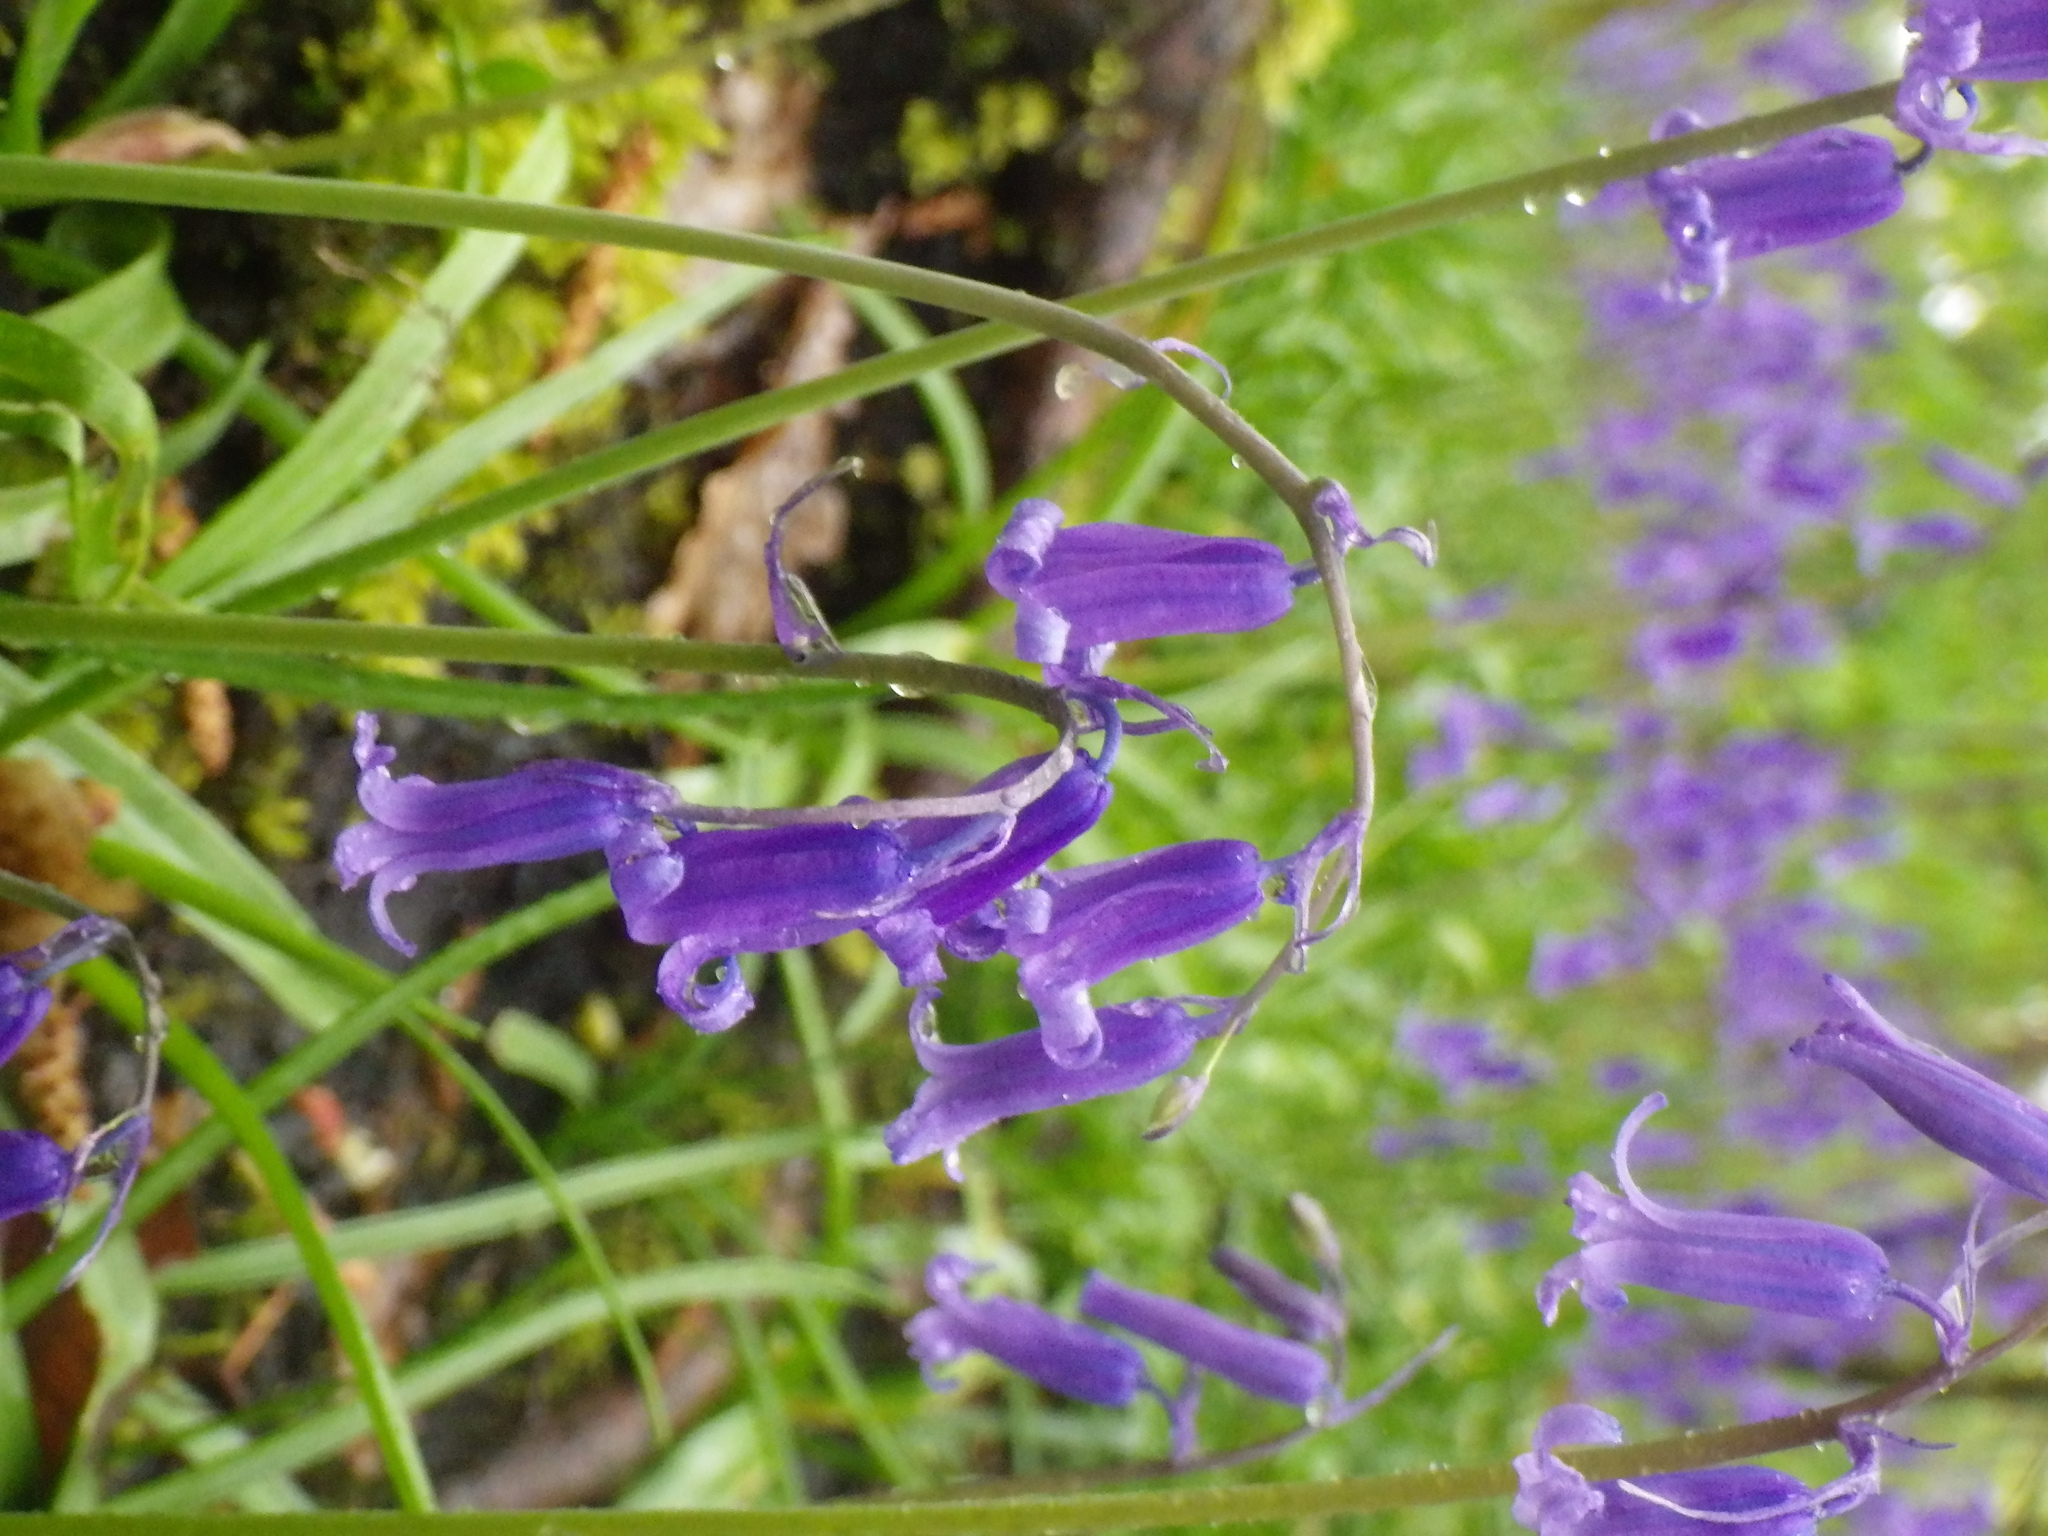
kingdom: Plantae
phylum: Tracheophyta
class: Liliopsida
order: Asparagales
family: Asparagaceae
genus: Hyacinthoides
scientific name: Hyacinthoides non-scripta
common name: Bluebell
